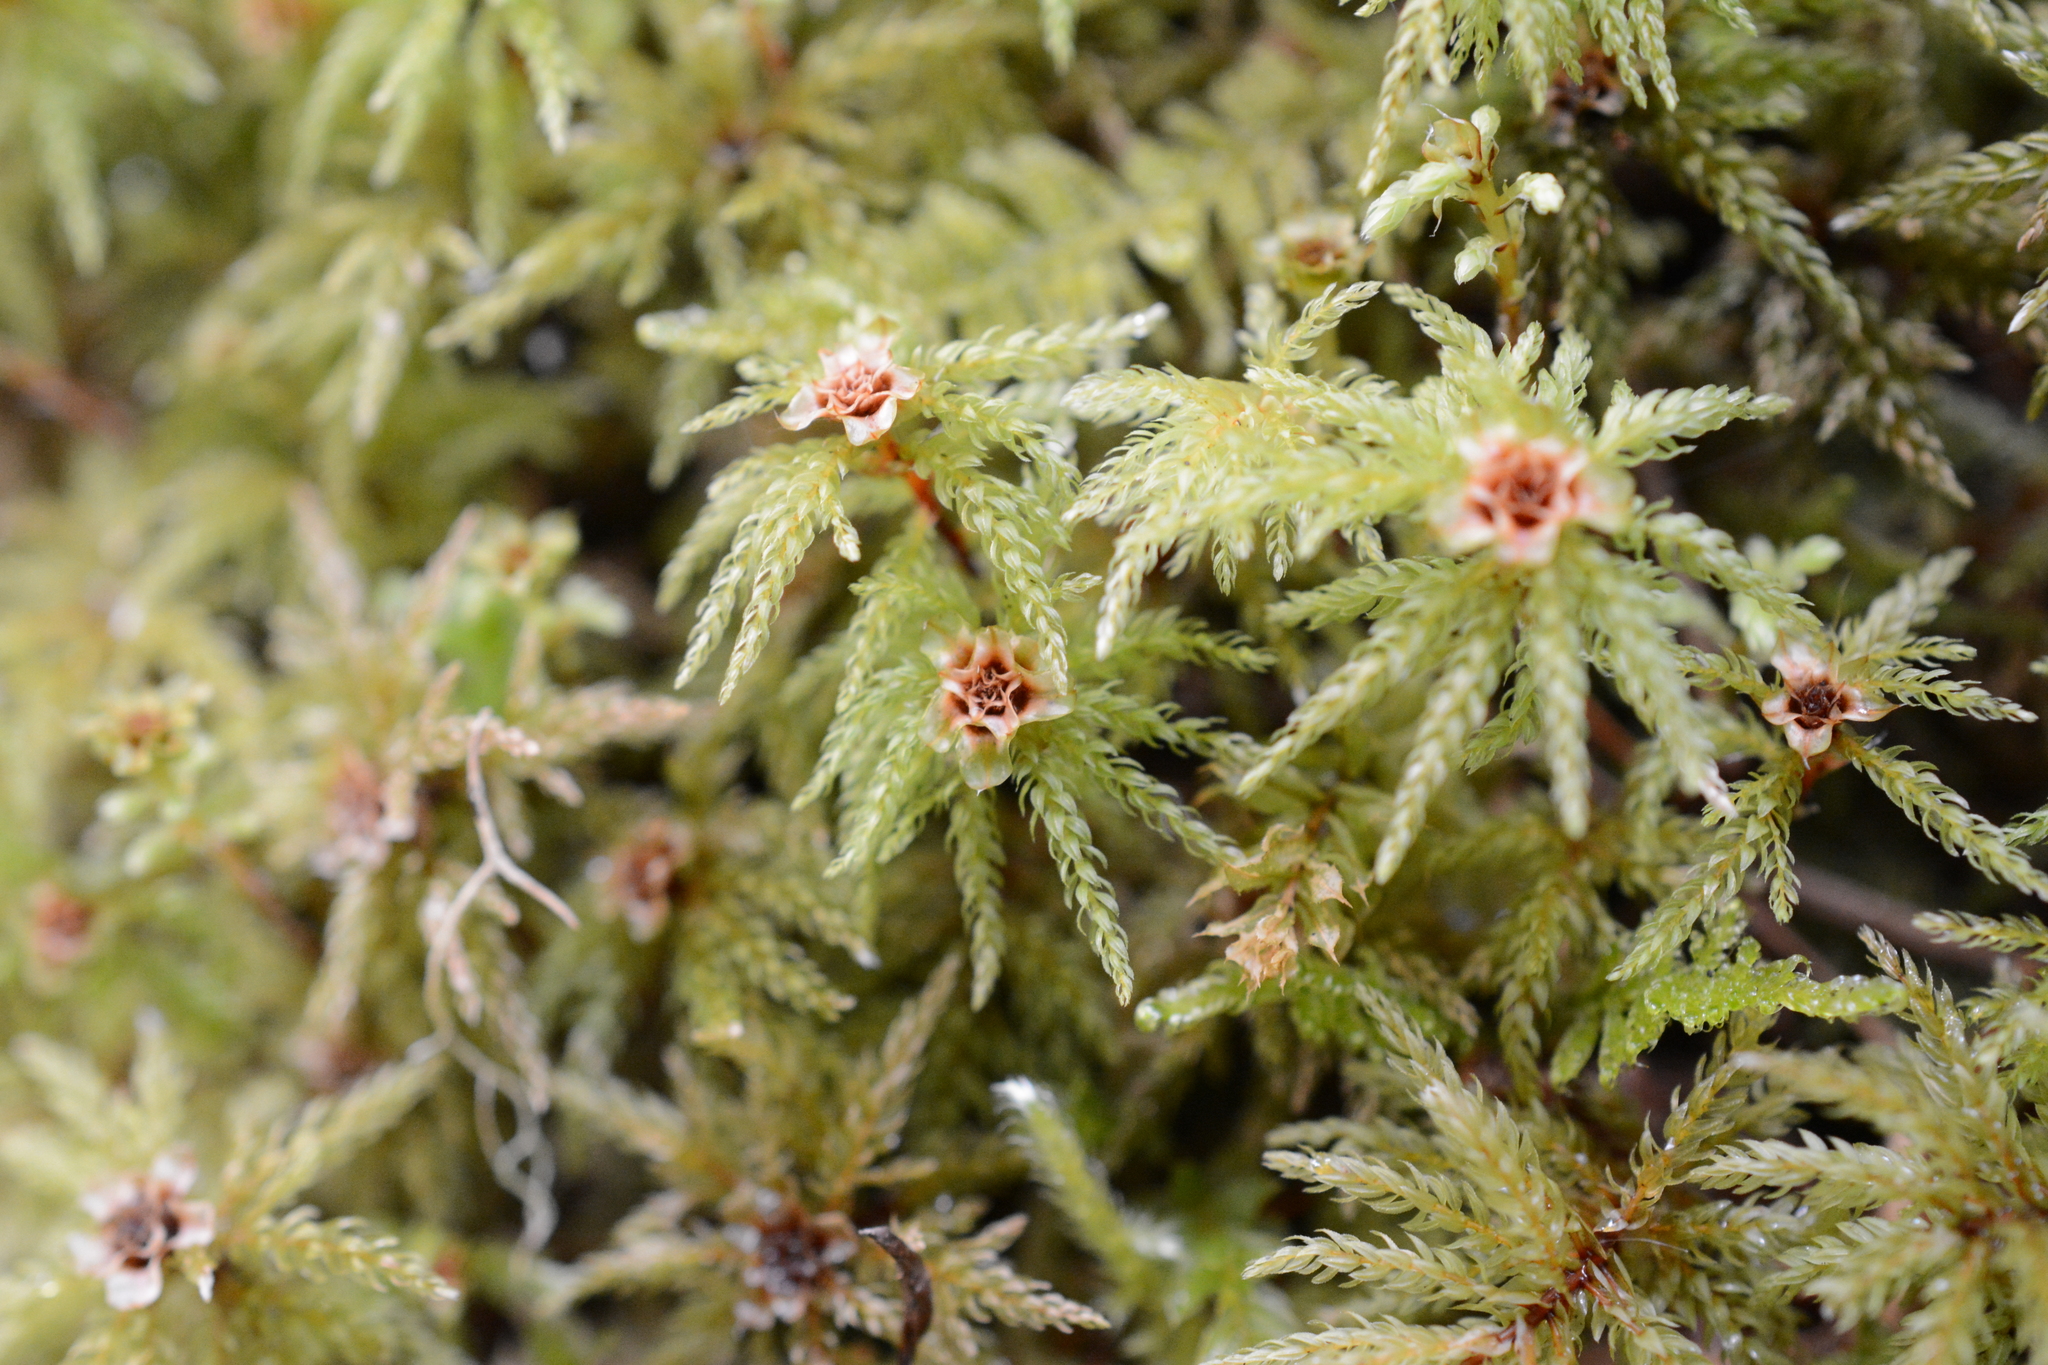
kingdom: Plantae
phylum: Bryophyta
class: Bryopsida
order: Bryales
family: Mniaceae
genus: Leucolepis
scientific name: Leucolepis acanthoneura
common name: Leucolepis umbrella moss
